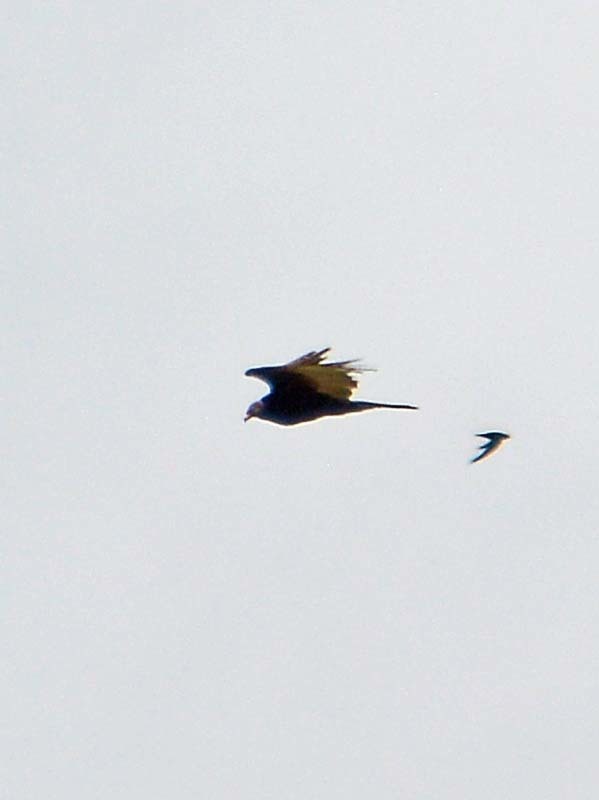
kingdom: Animalia
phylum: Chordata
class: Aves
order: Accipitriformes
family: Cathartidae
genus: Cathartes
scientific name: Cathartes aura
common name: Turkey vulture
